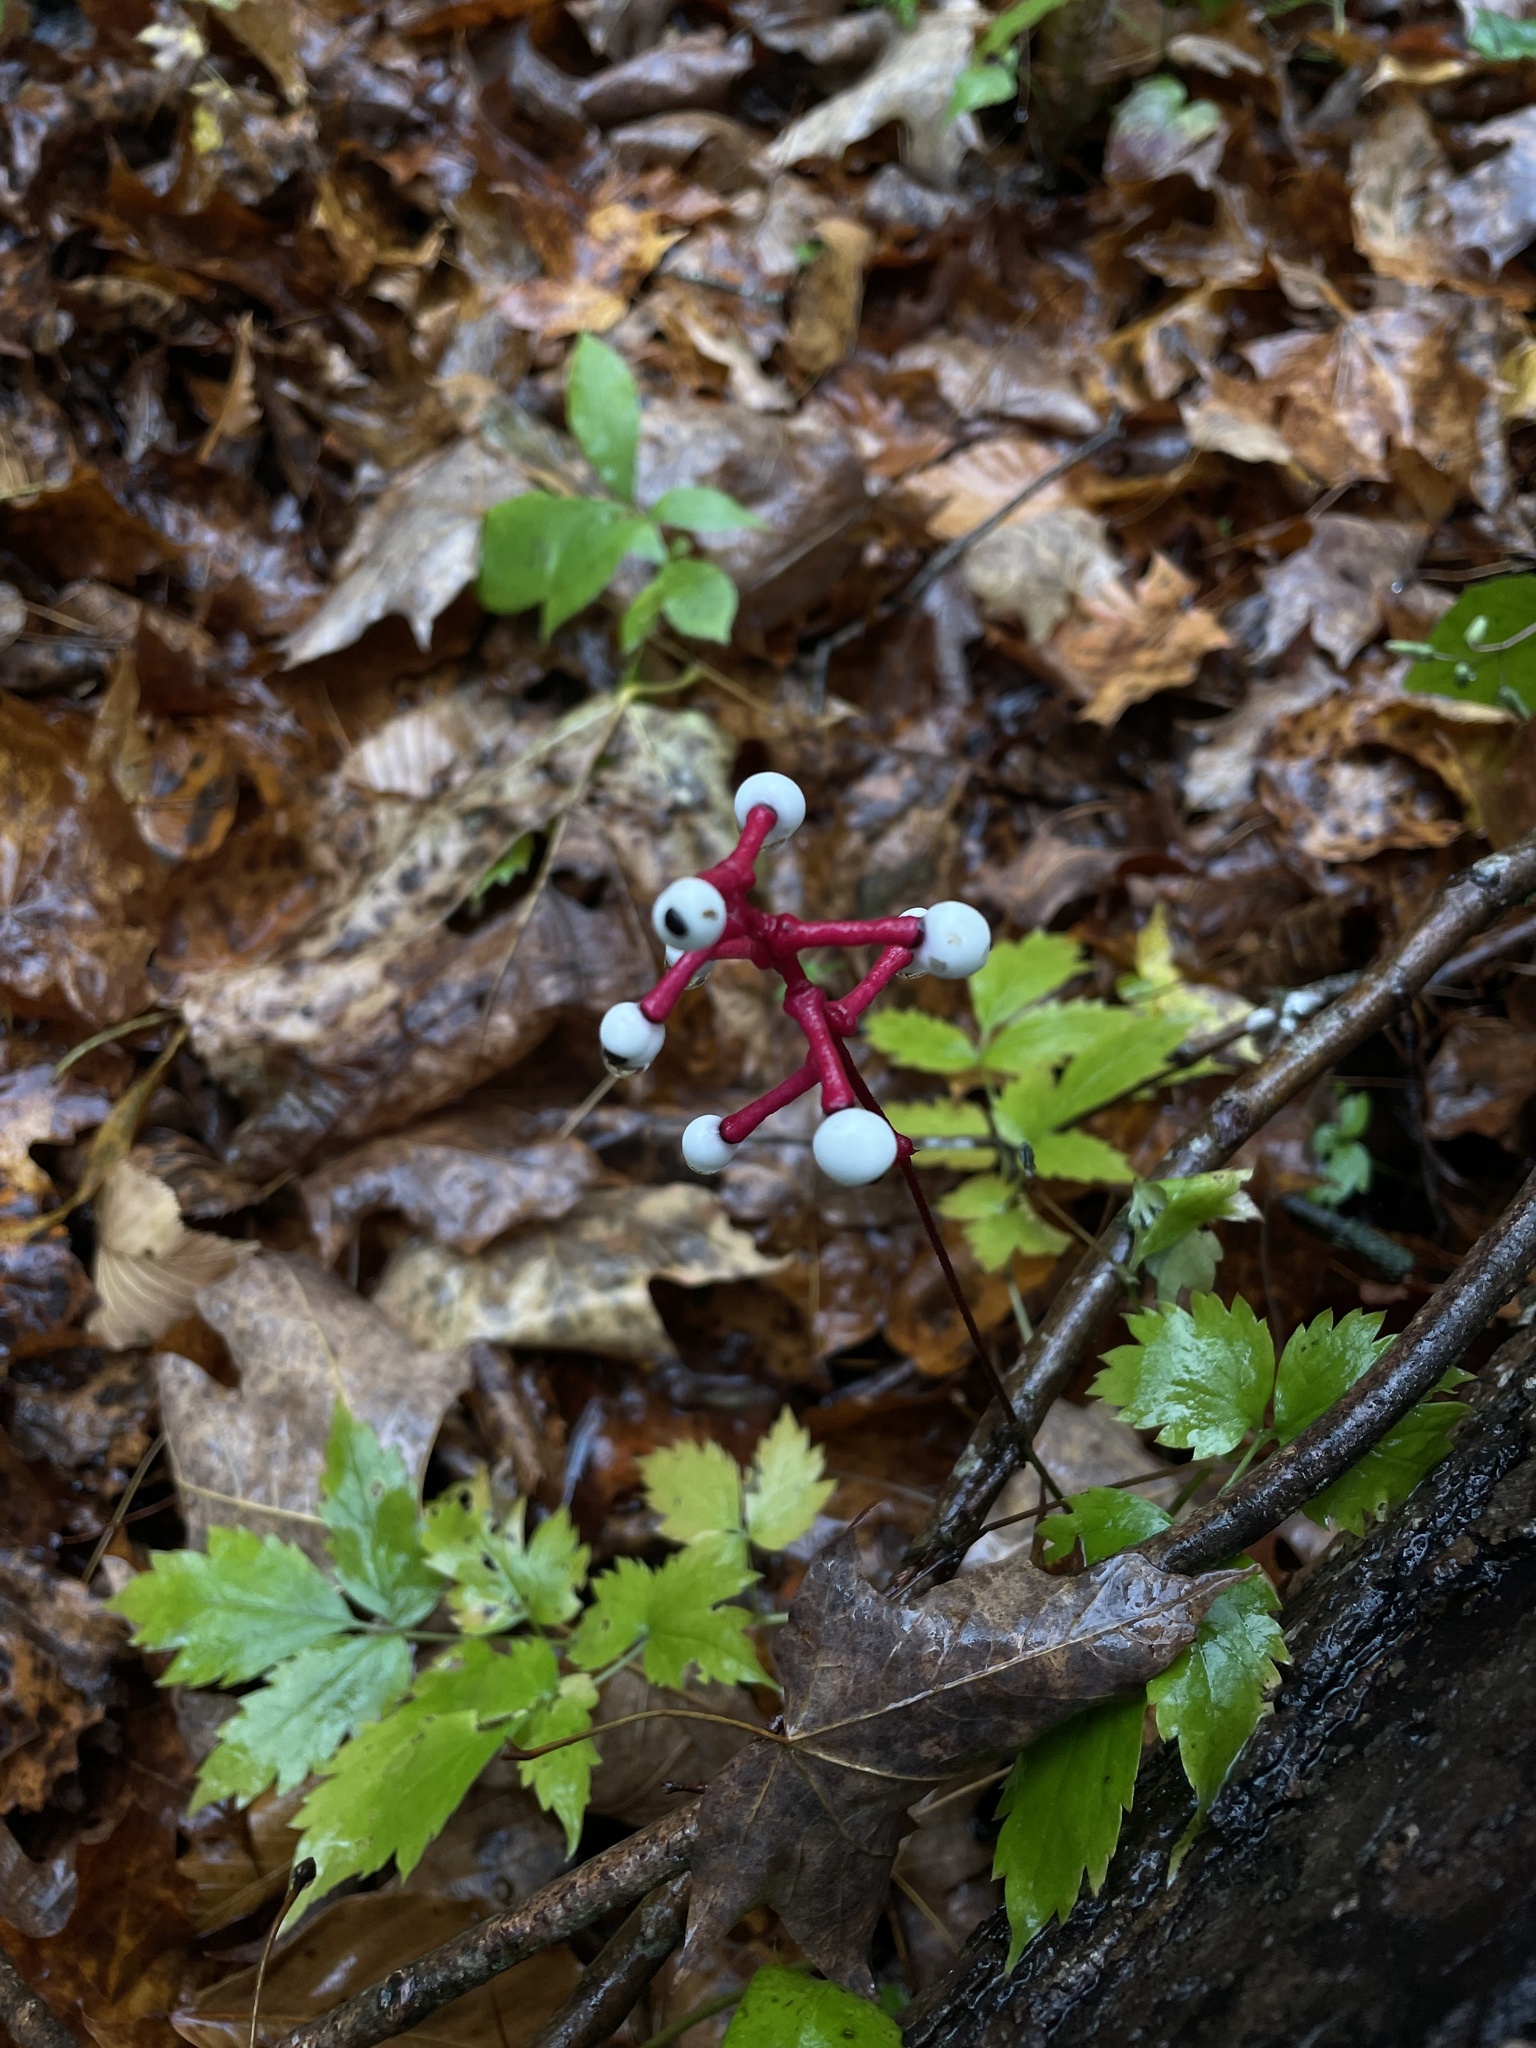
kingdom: Plantae
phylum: Tracheophyta
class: Magnoliopsida
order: Ranunculales
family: Ranunculaceae
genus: Actaea
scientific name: Actaea pachypoda
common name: Doll's-eyes
